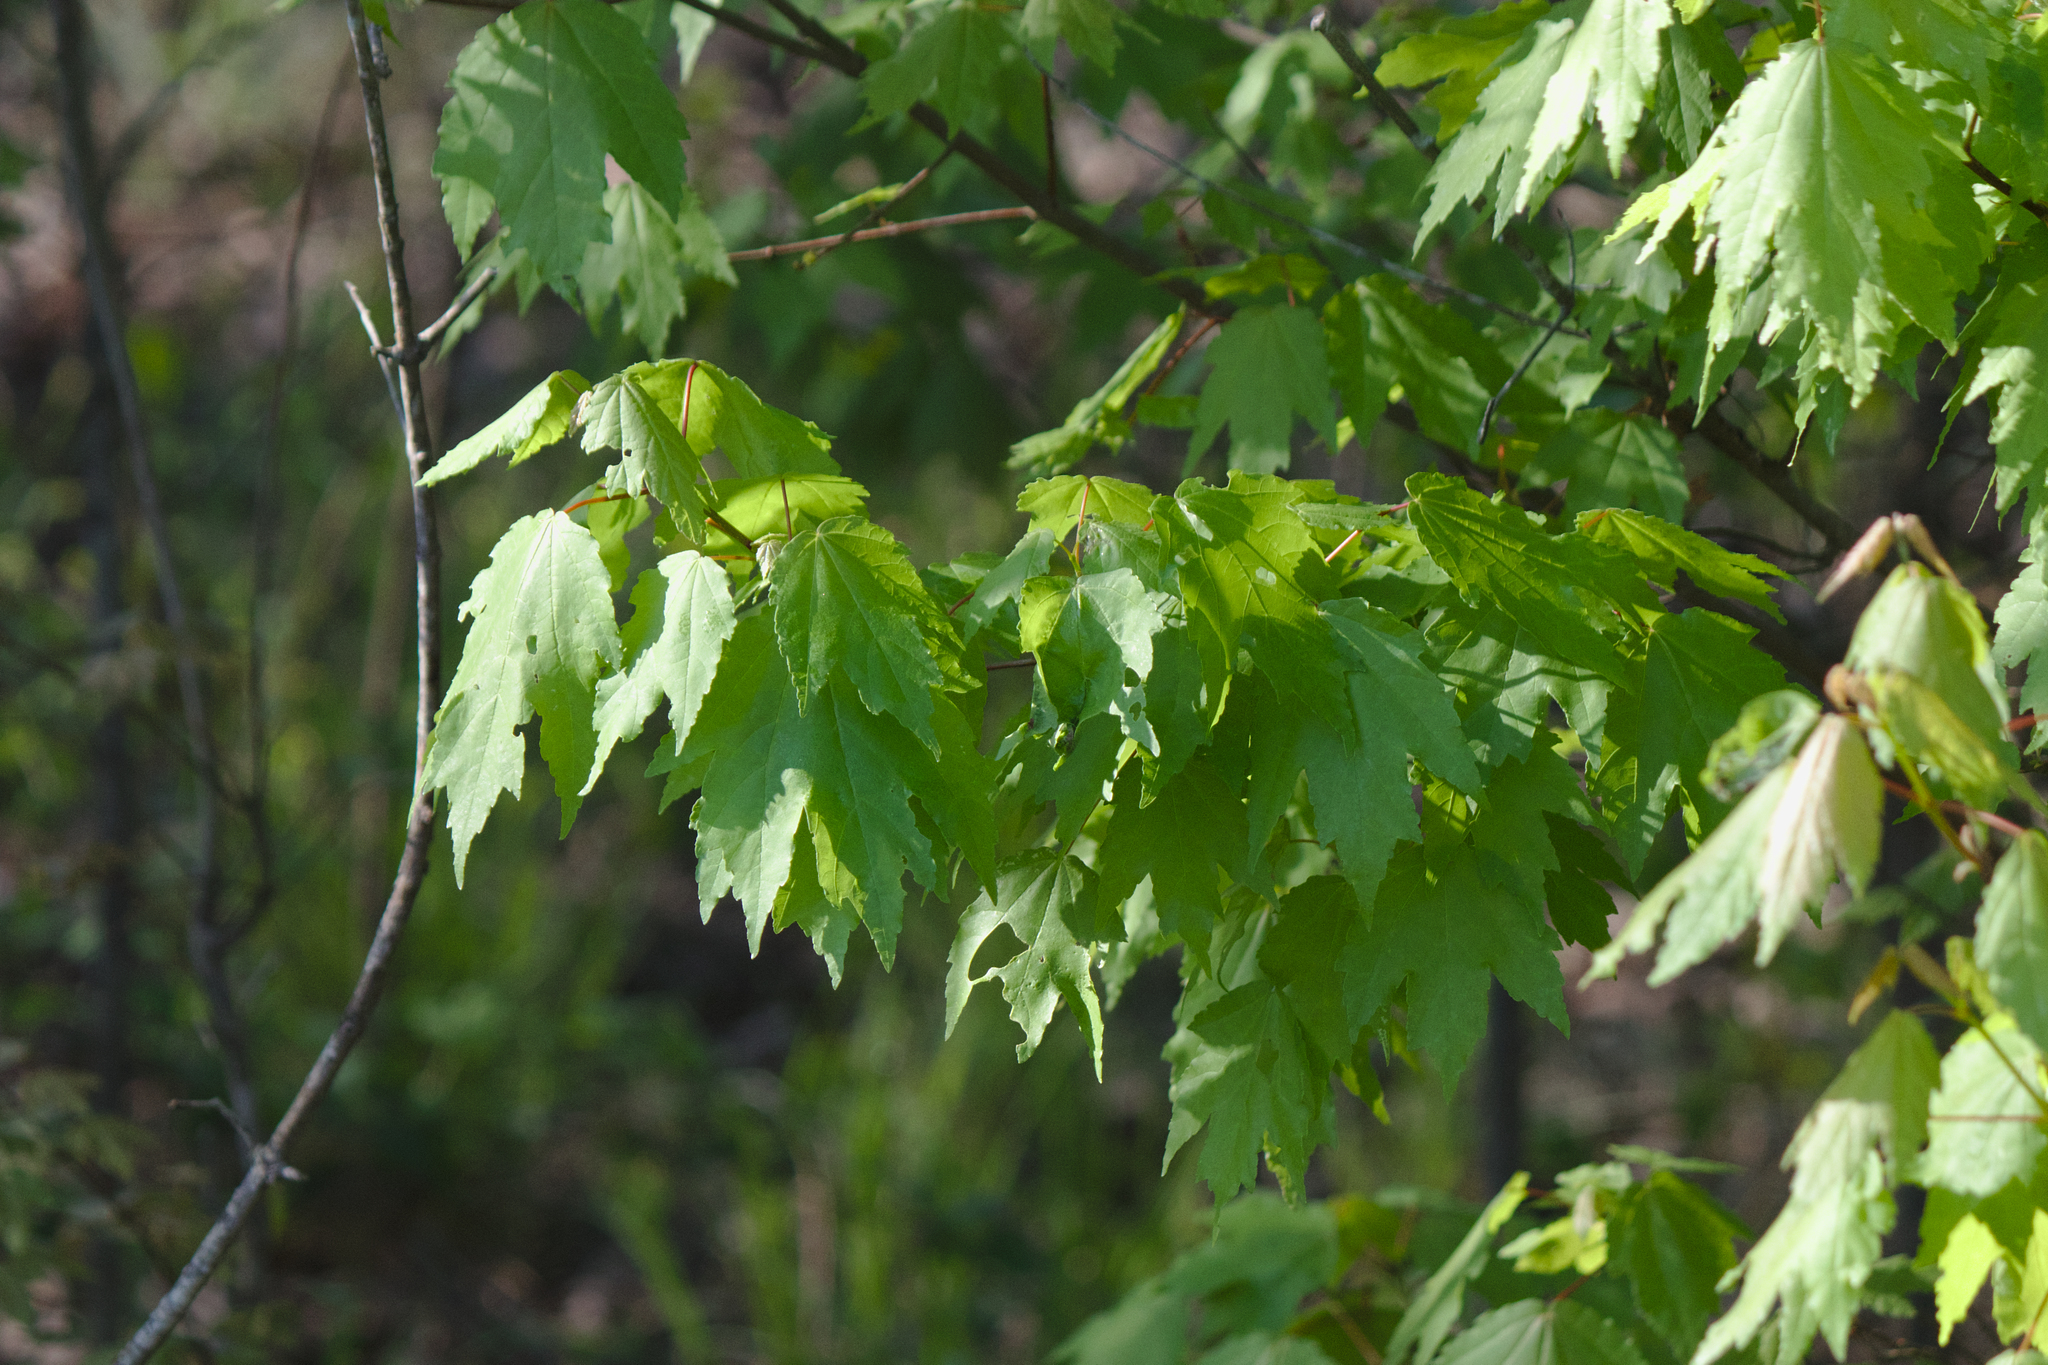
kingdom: Plantae
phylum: Tracheophyta
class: Magnoliopsida
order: Sapindales
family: Sapindaceae
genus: Acer
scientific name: Acer rubrum
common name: Red maple
